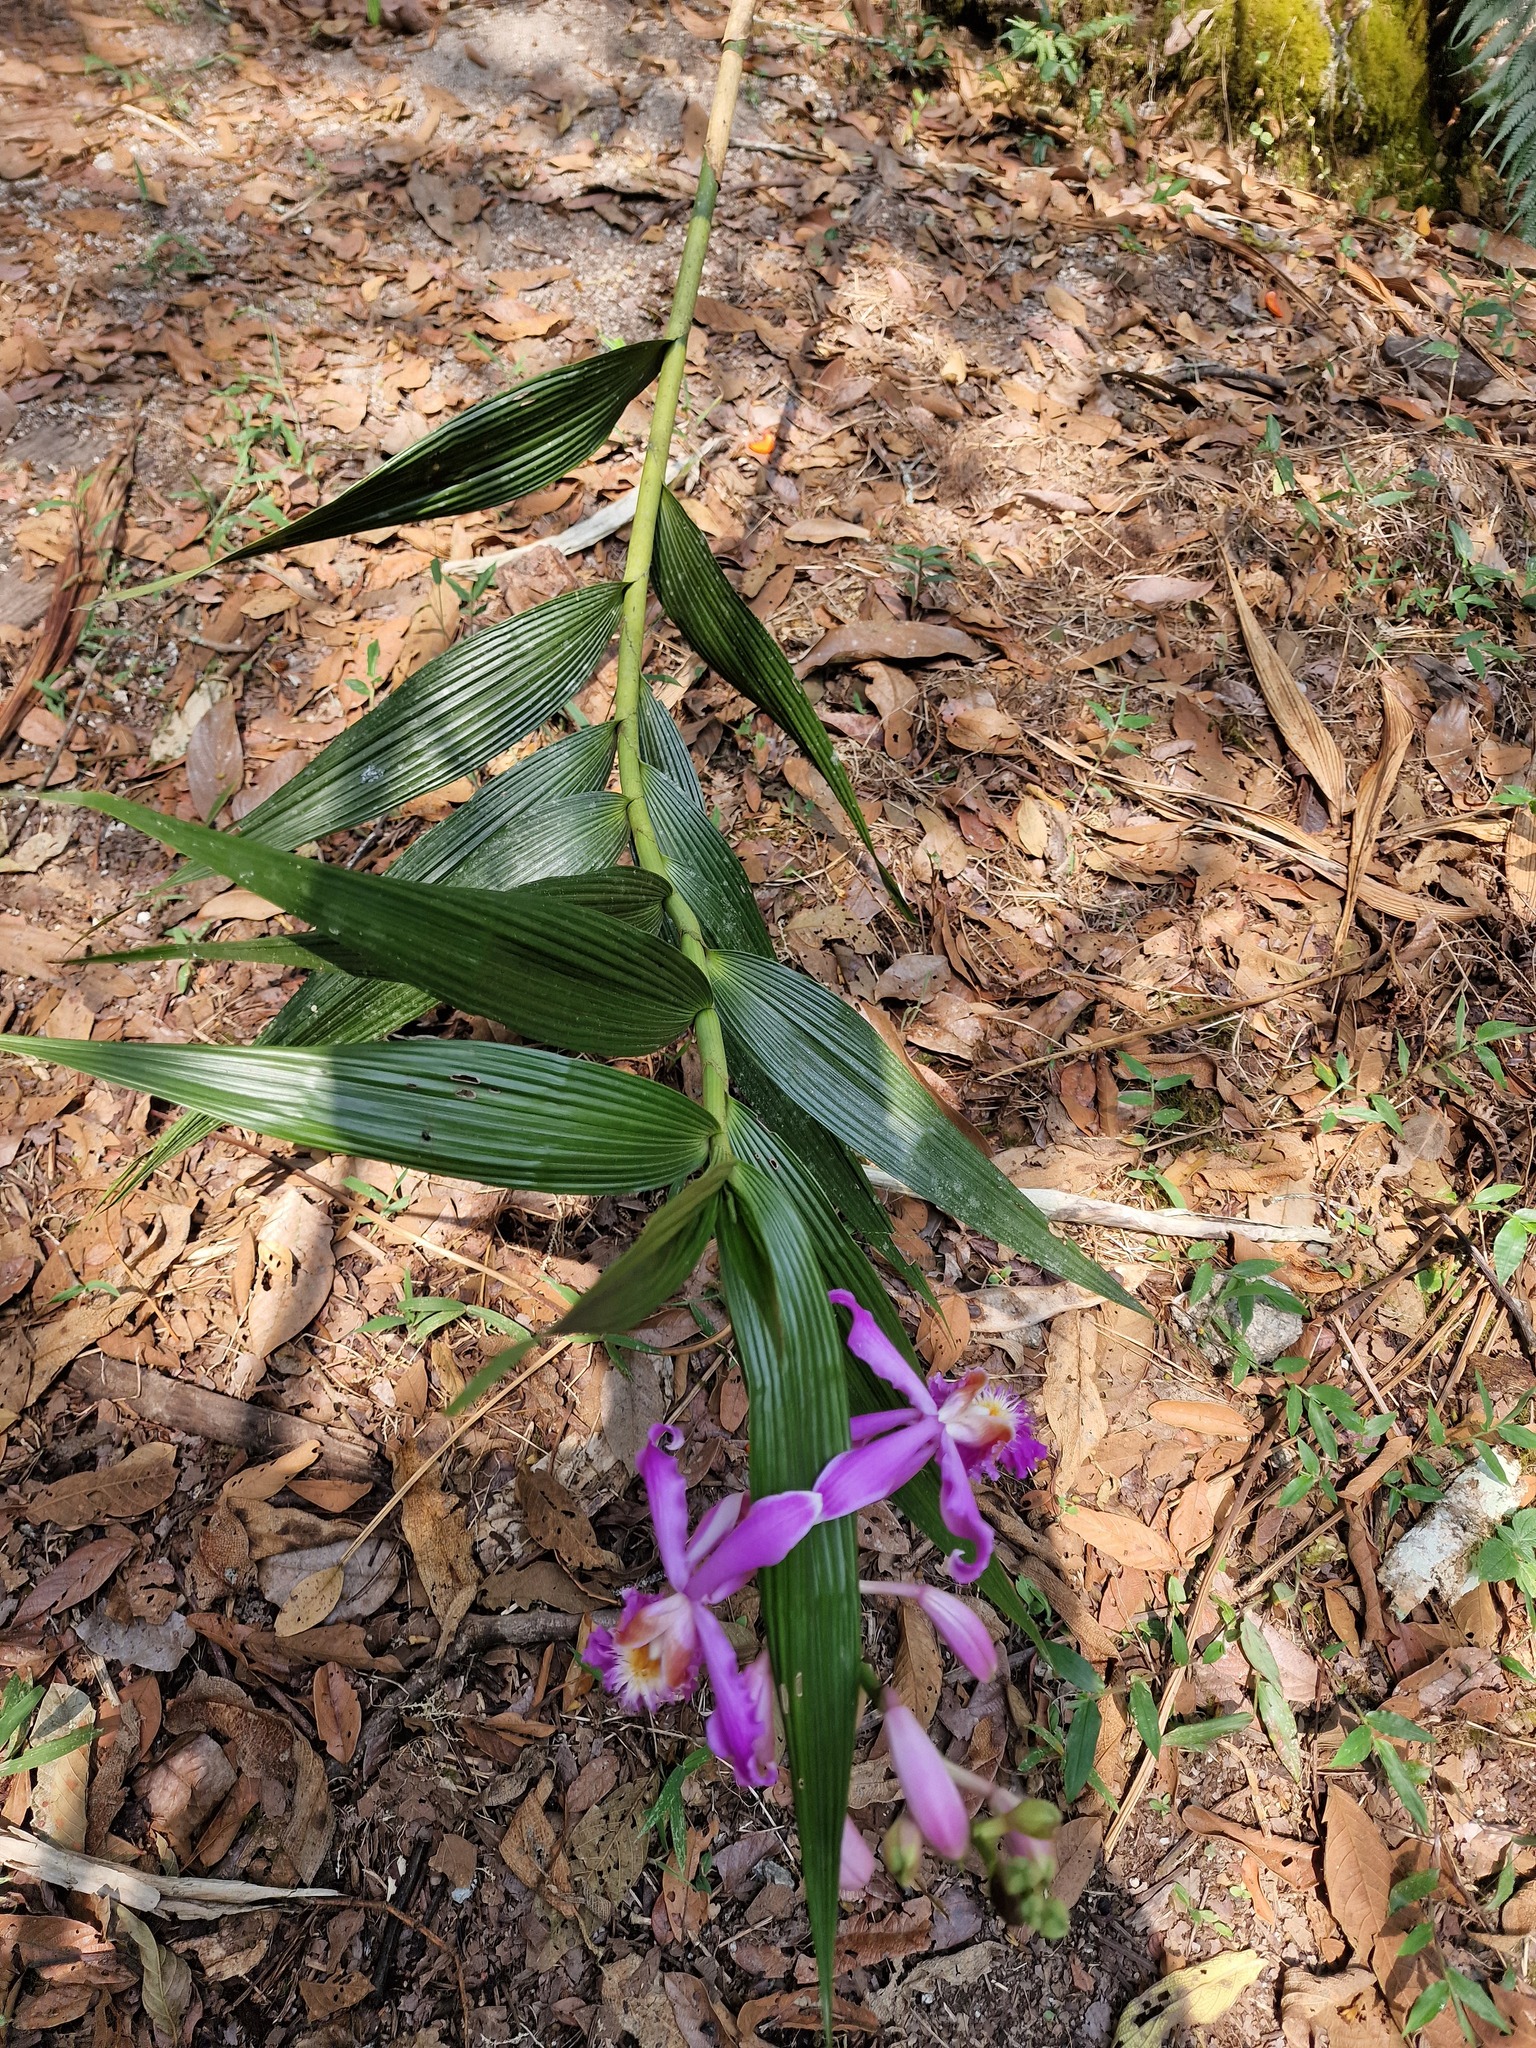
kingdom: Plantae
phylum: Tracheophyta
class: Liliopsida
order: Asparagales
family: Orchidaceae
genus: Sobralia
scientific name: Sobralia dichotoma
